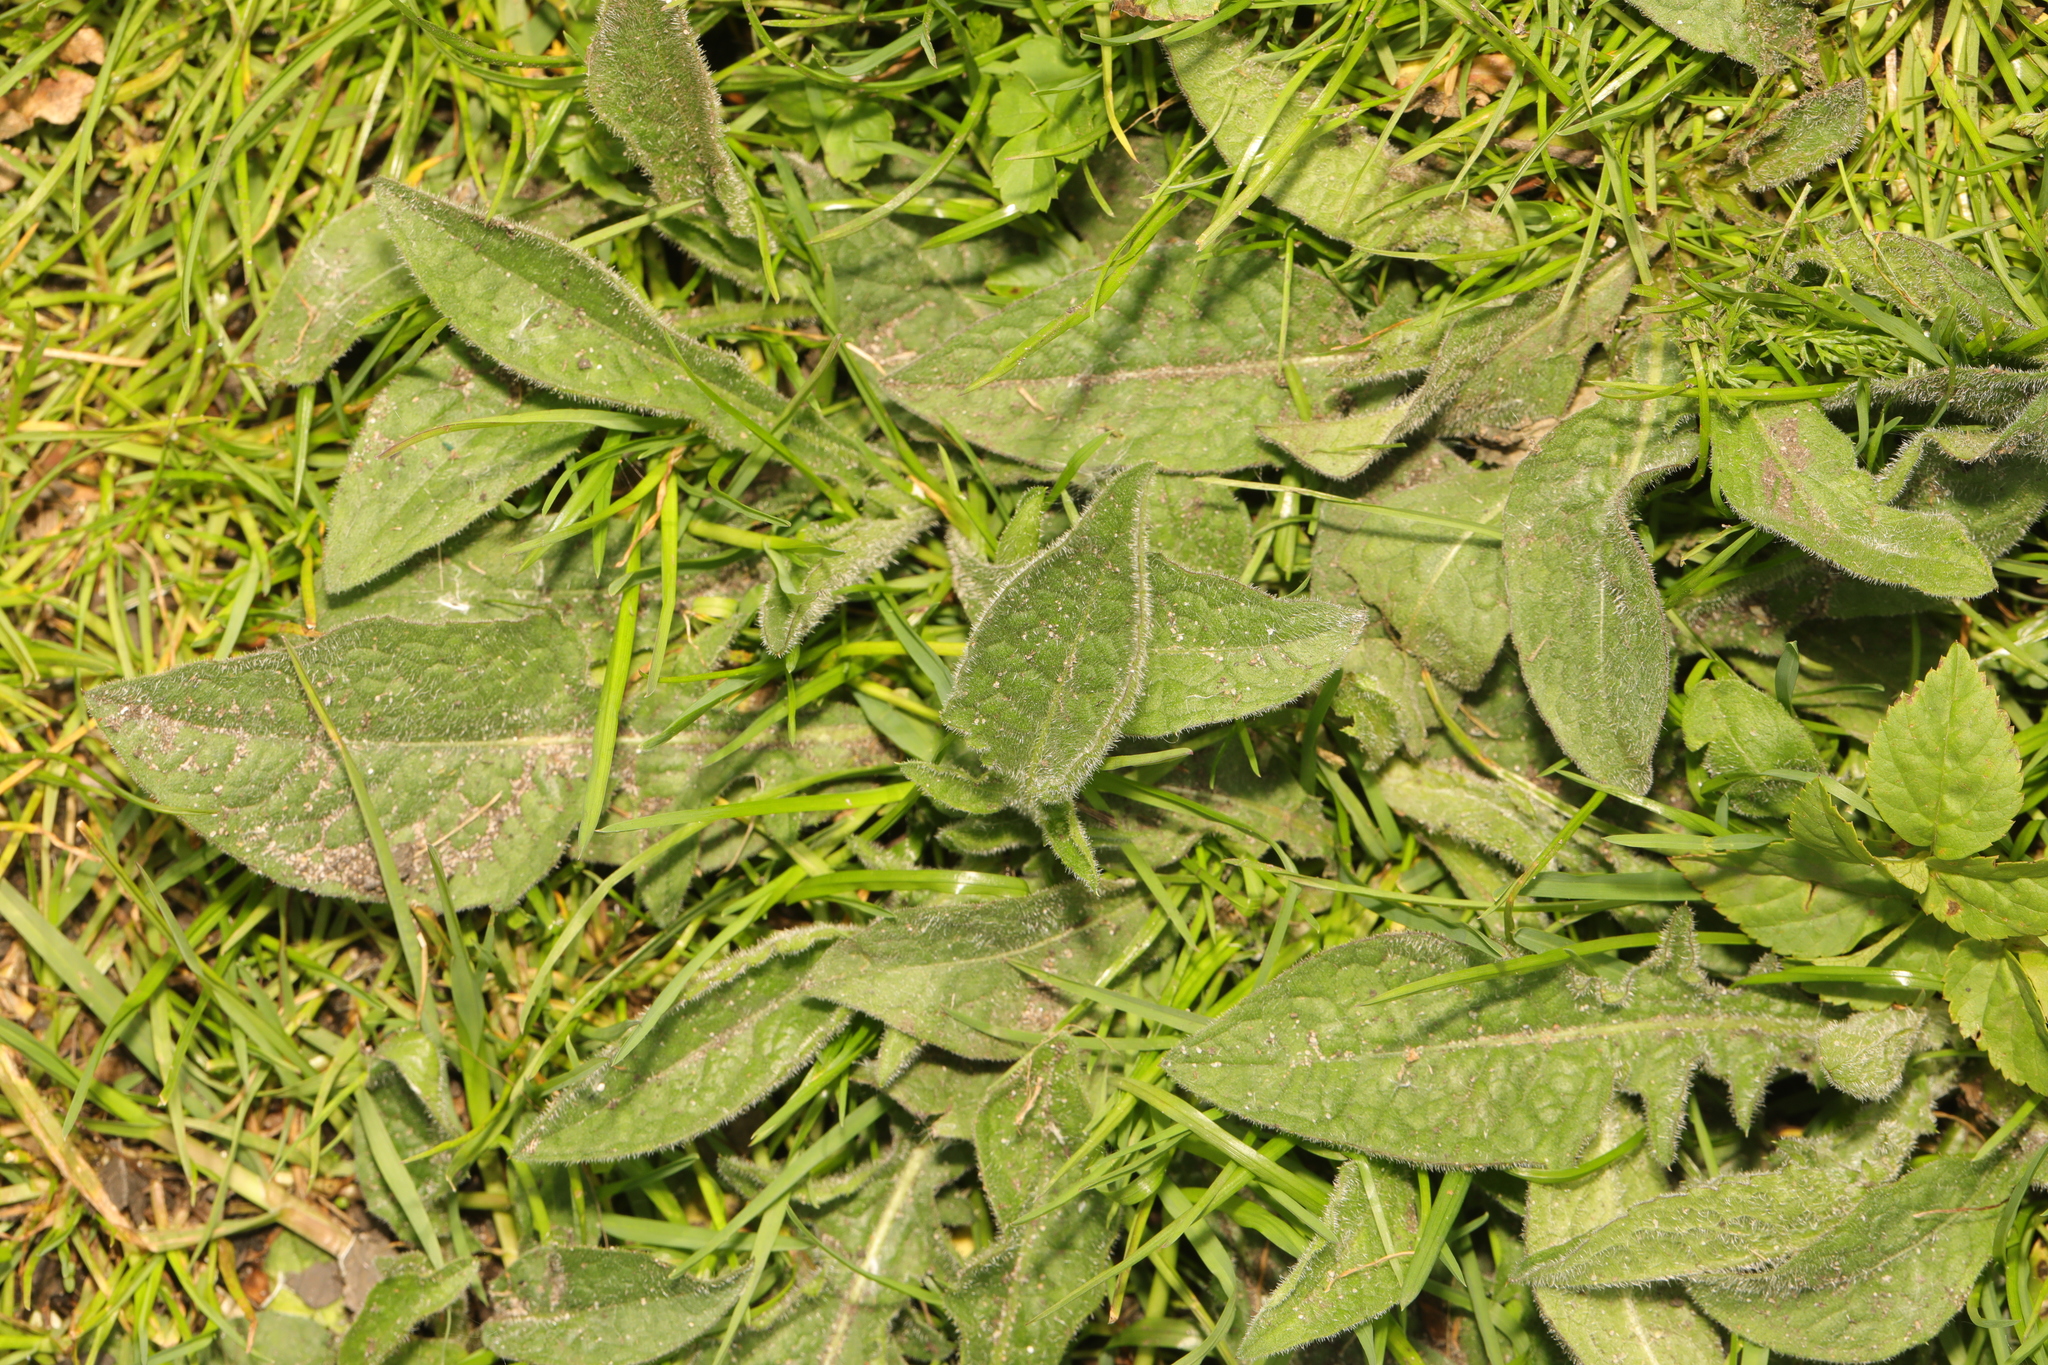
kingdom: Plantae
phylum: Tracheophyta
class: Magnoliopsida
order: Asterales
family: Asteraceae
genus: Centaurea
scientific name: Centaurea nigra
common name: Lesser knapweed
